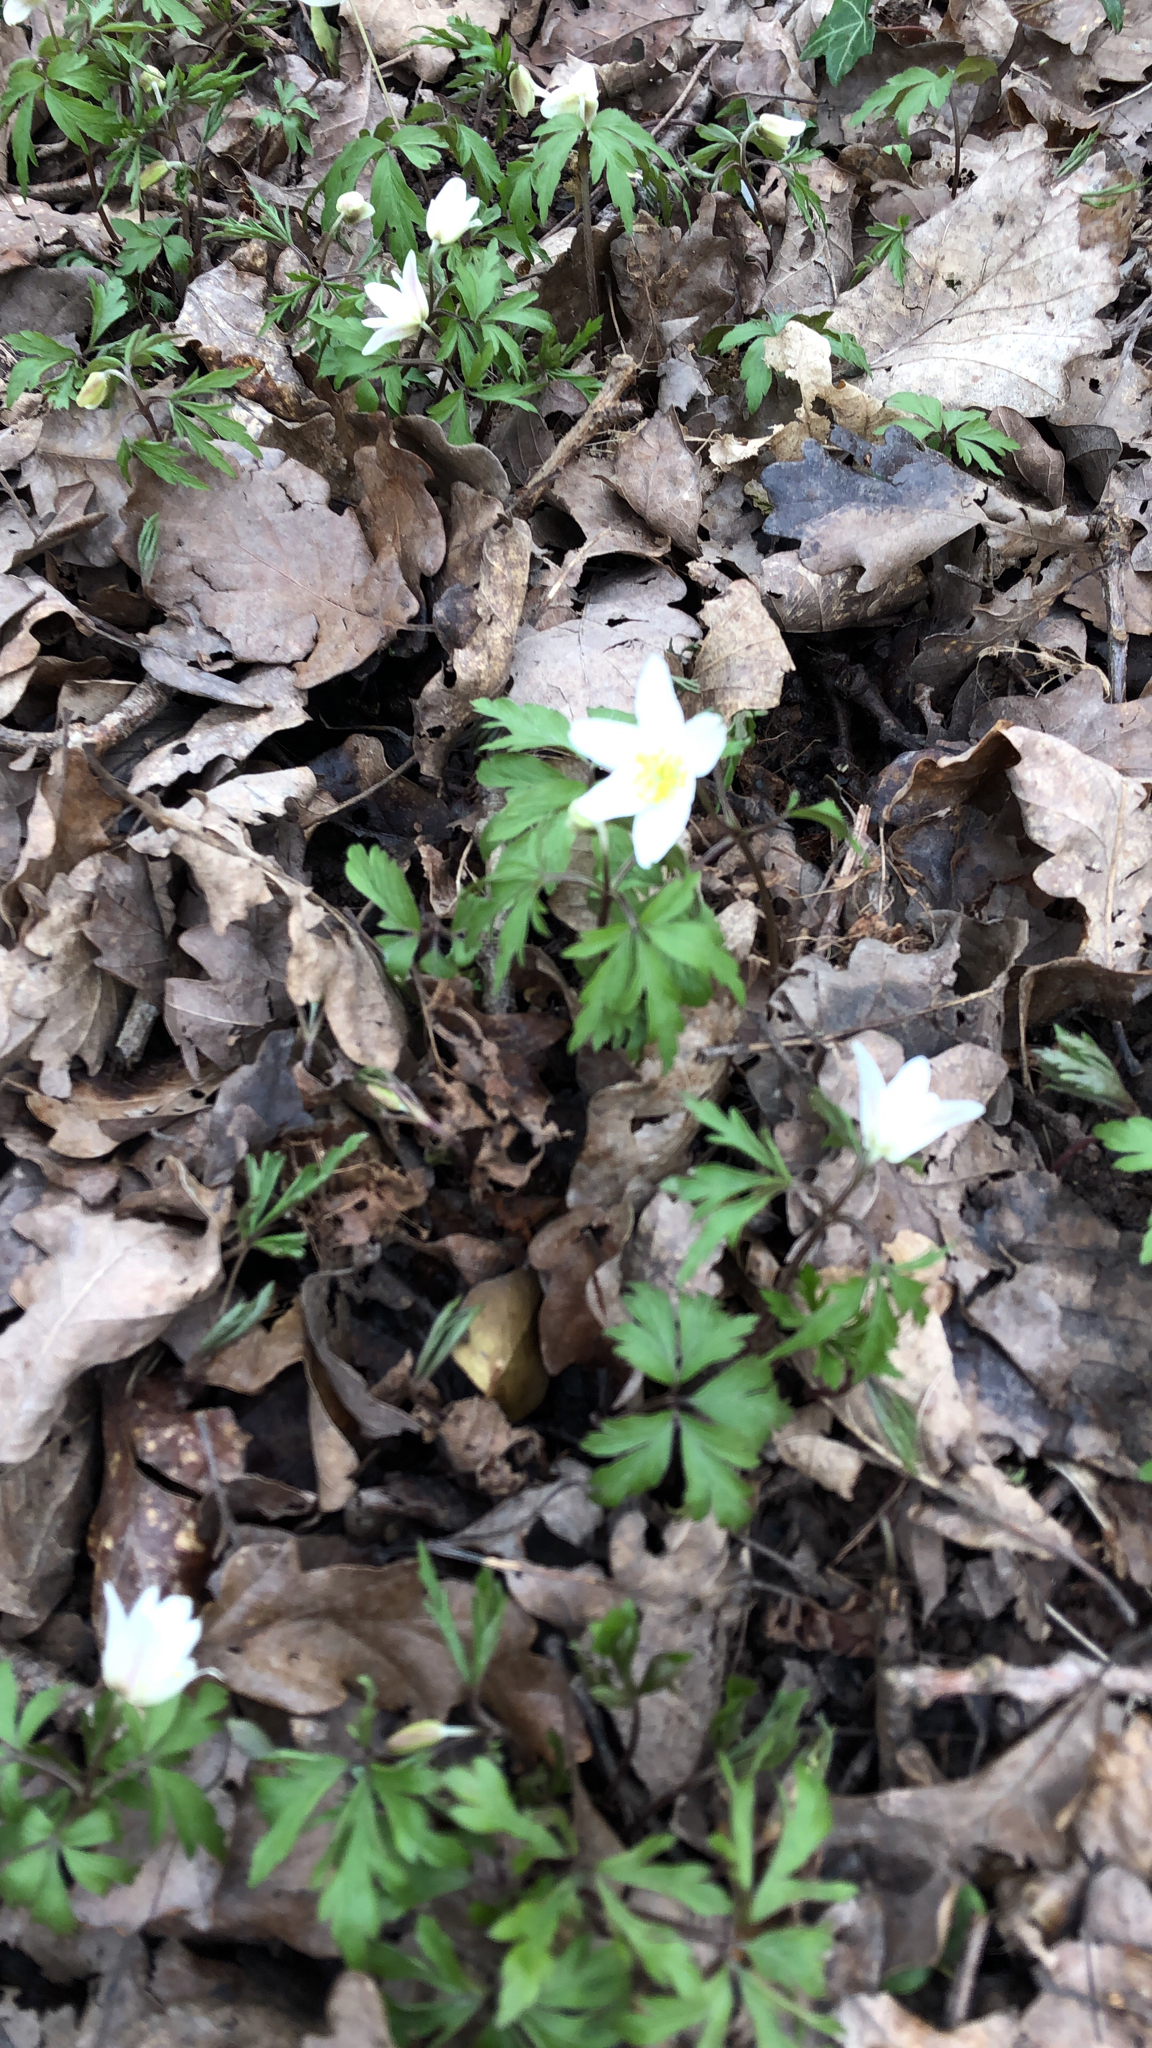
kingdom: Plantae
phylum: Tracheophyta
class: Magnoliopsida
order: Ranunculales
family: Ranunculaceae
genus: Anemone
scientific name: Anemone nemorosa
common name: Wood anemone
